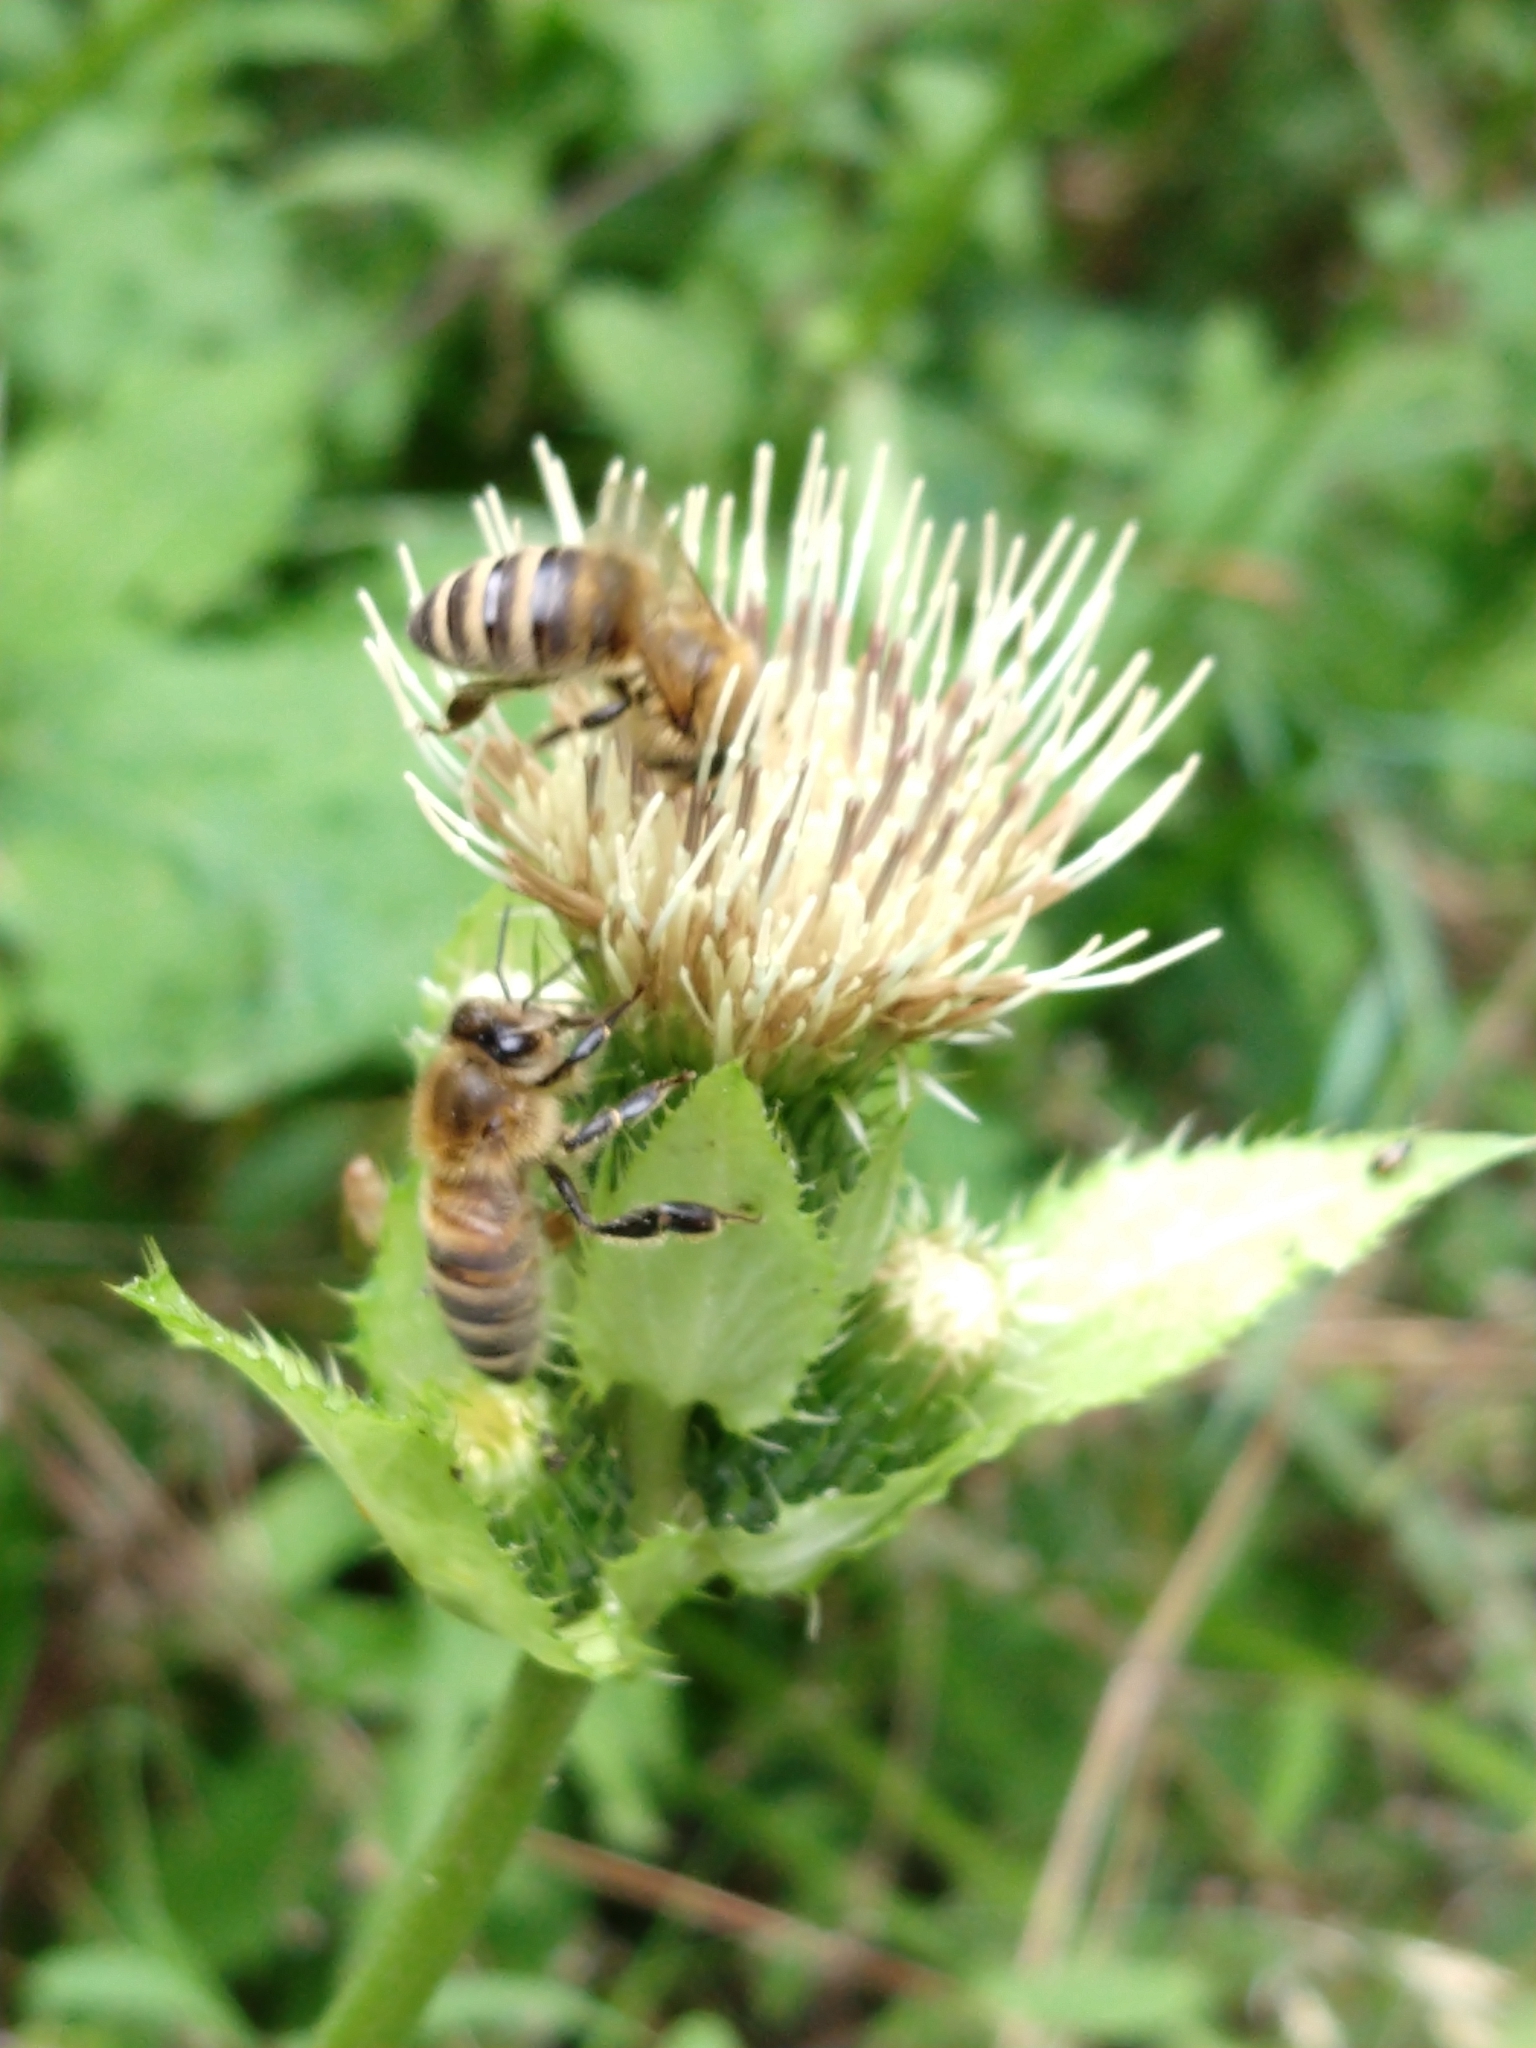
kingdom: Plantae
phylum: Tracheophyta
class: Magnoliopsida
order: Asterales
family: Asteraceae
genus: Cirsium
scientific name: Cirsium oleraceum
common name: Cabbage thistle
